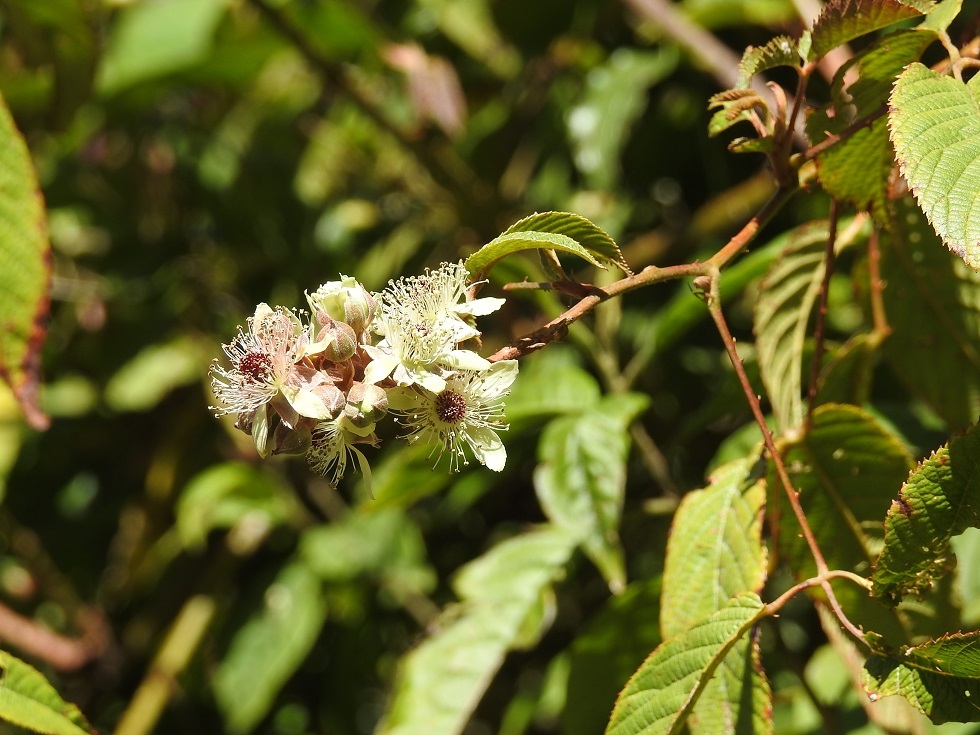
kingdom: Plantae
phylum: Tracheophyta
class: Magnoliopsida
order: Rosales
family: Rosaceae
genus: Rubus
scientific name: Rubus coriifolius
